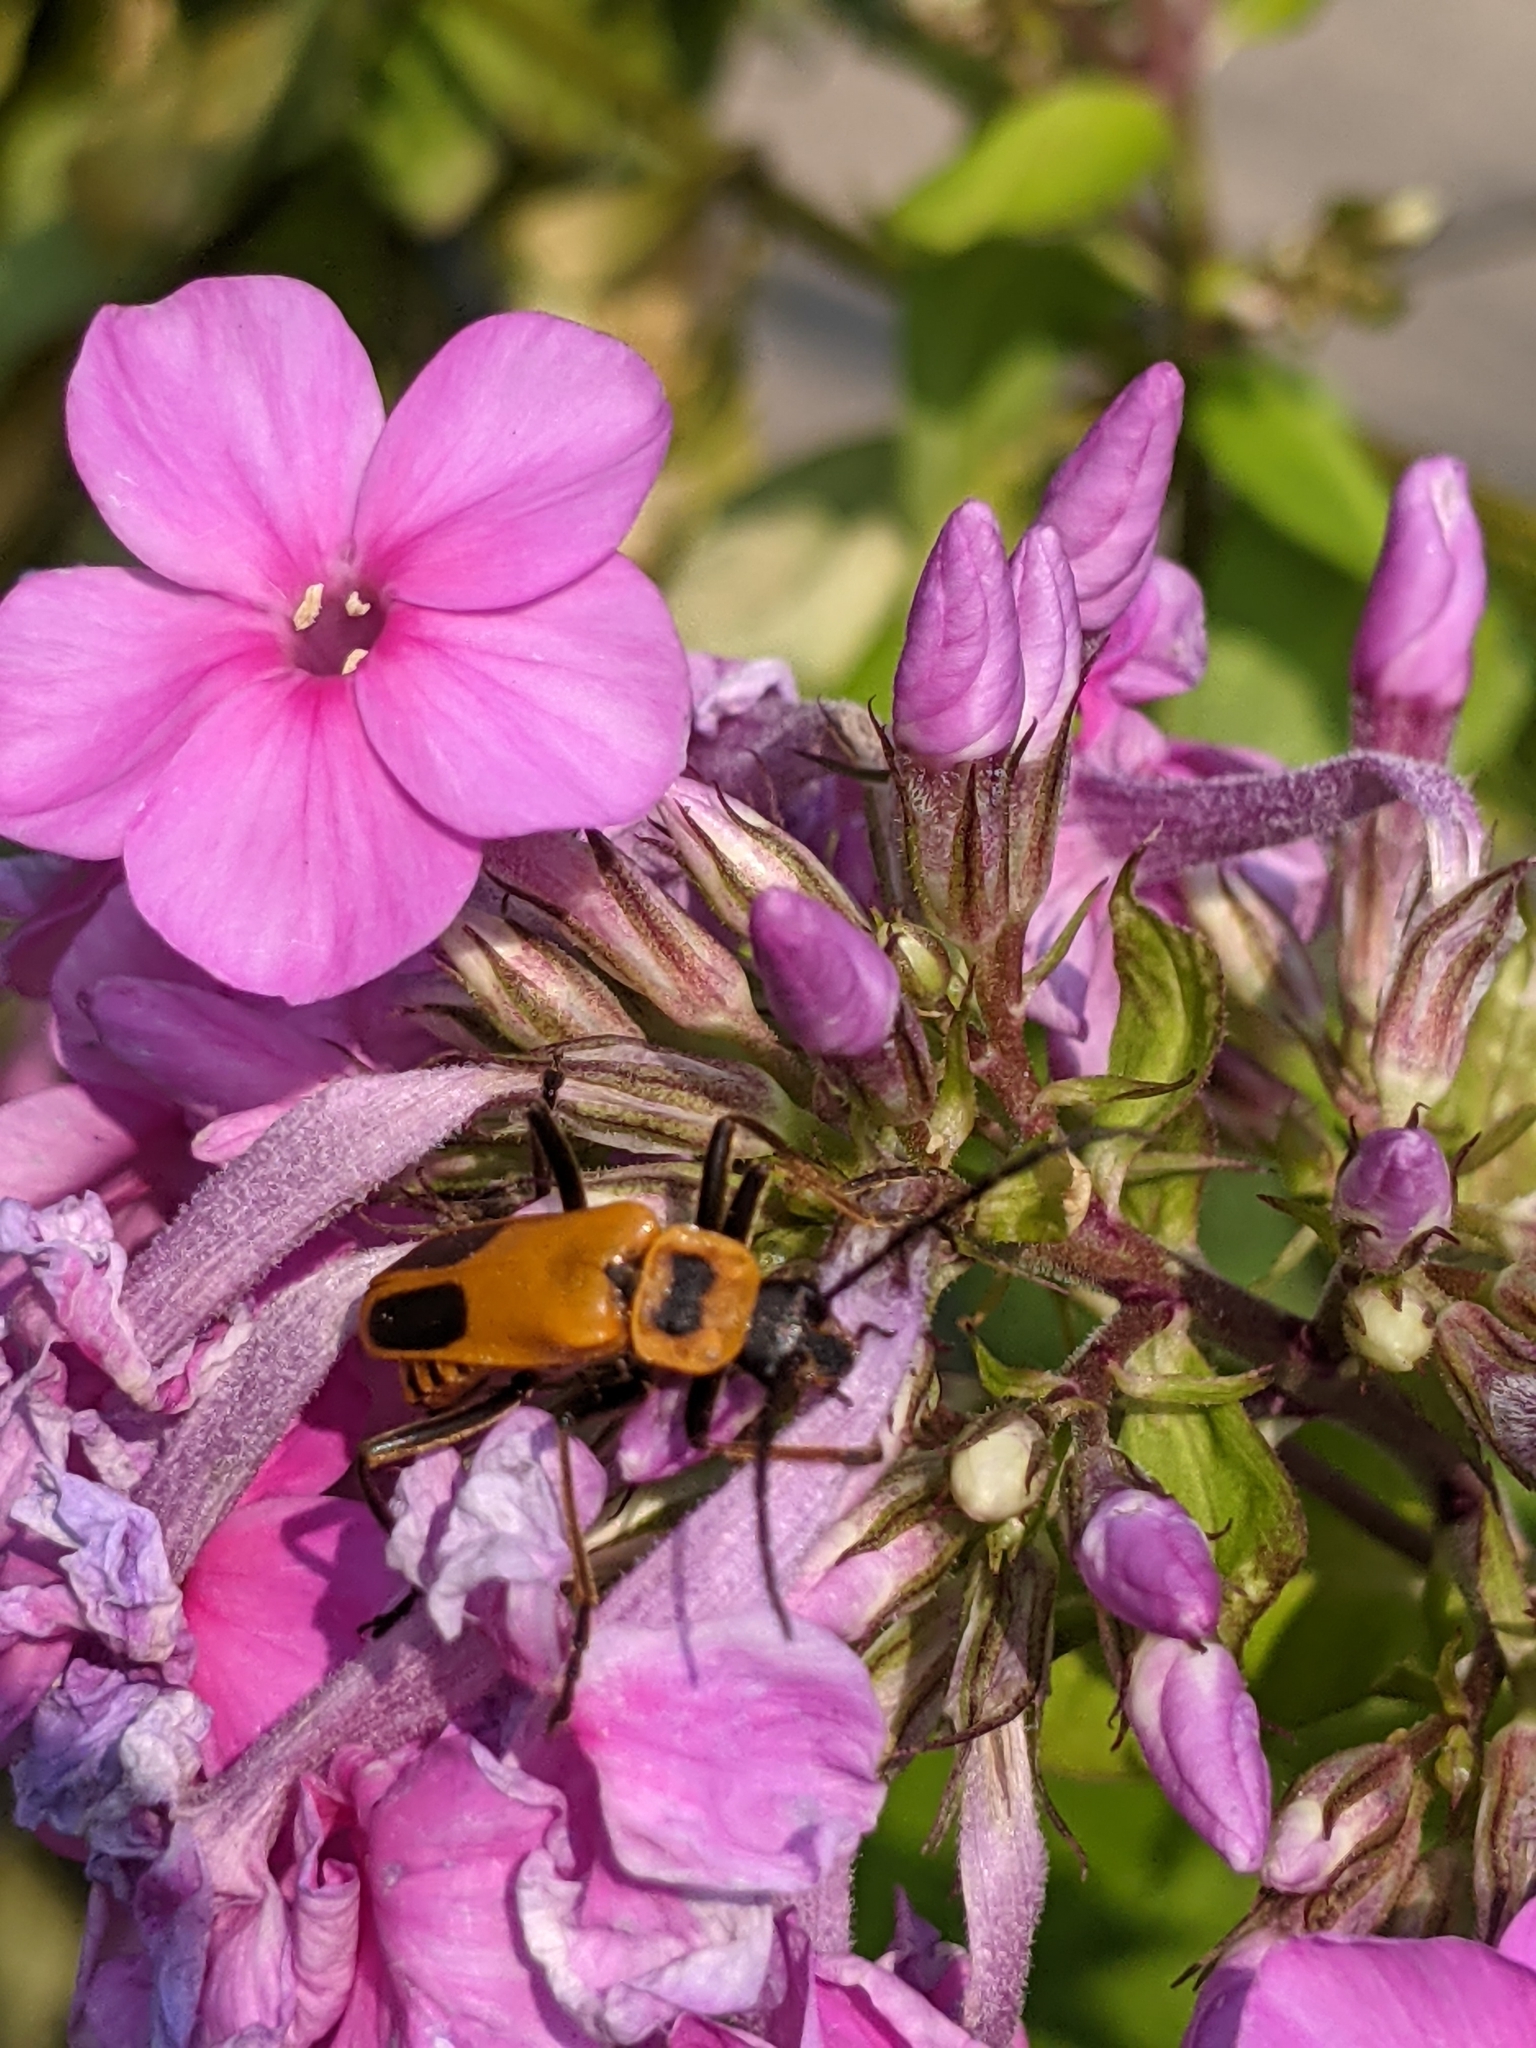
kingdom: Animalia
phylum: Arthropoda
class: Insecta
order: Coleoptera
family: Cantharidae
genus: Chauliognathus
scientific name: Chauliognathus pensylvanicus
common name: Goldenrod soldier beetle
